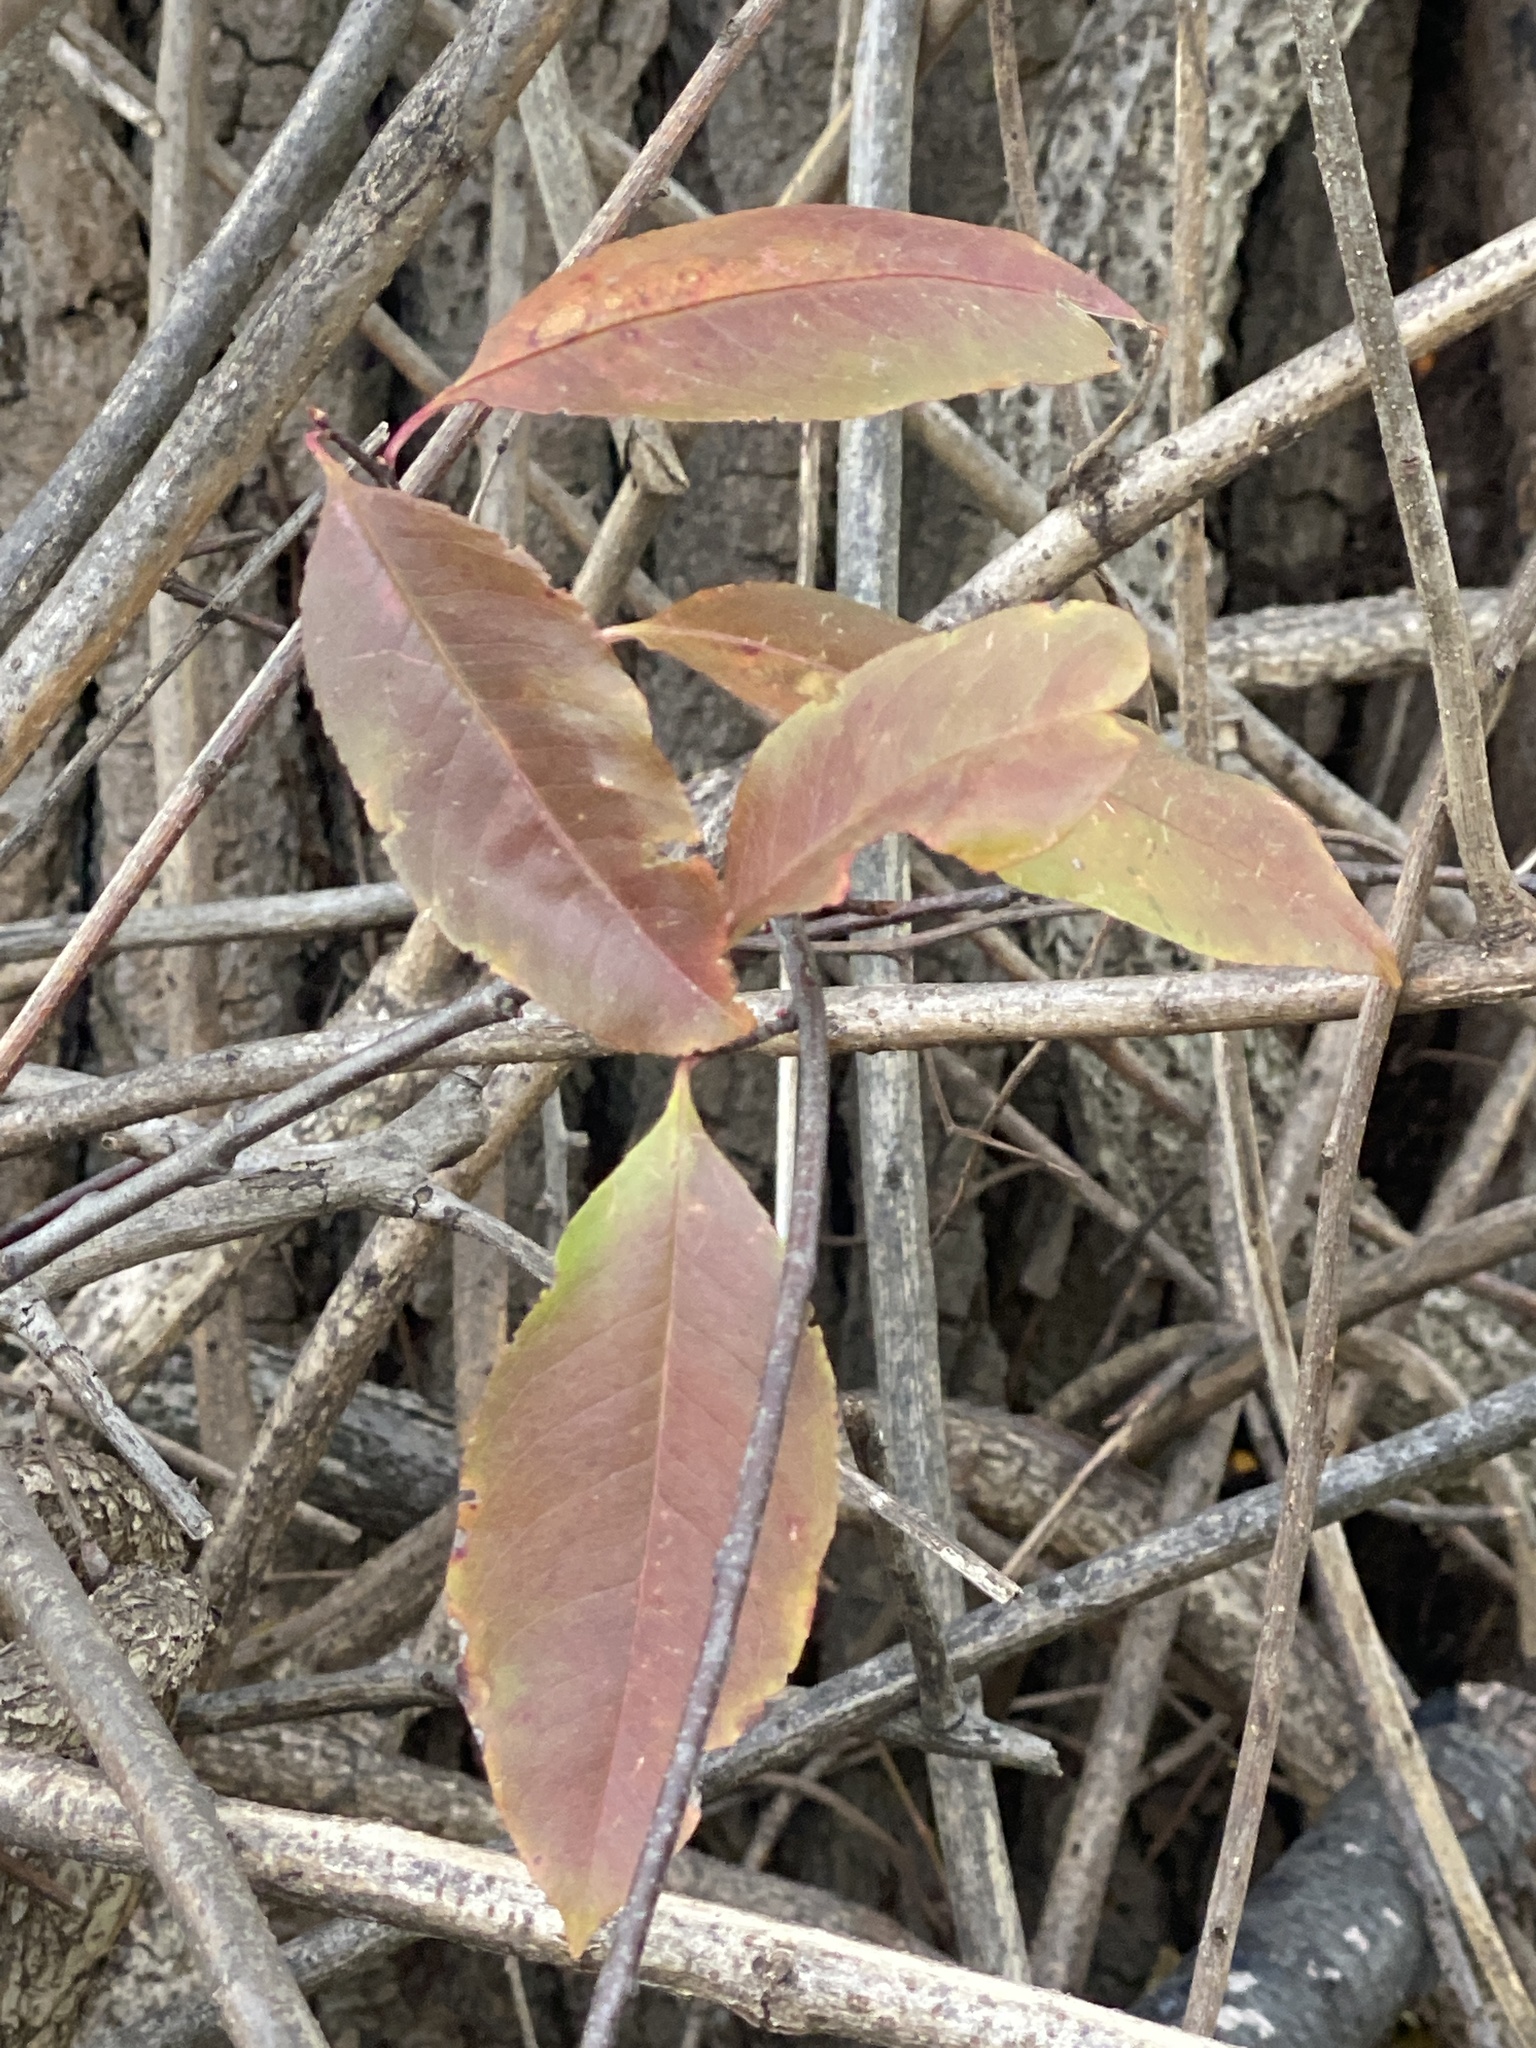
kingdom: Plantae
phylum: Tracheophyta
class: Magnoliopsida
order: Rosales
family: Rosaceae
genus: Prunus
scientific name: Prunus serotina
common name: Black cherry
